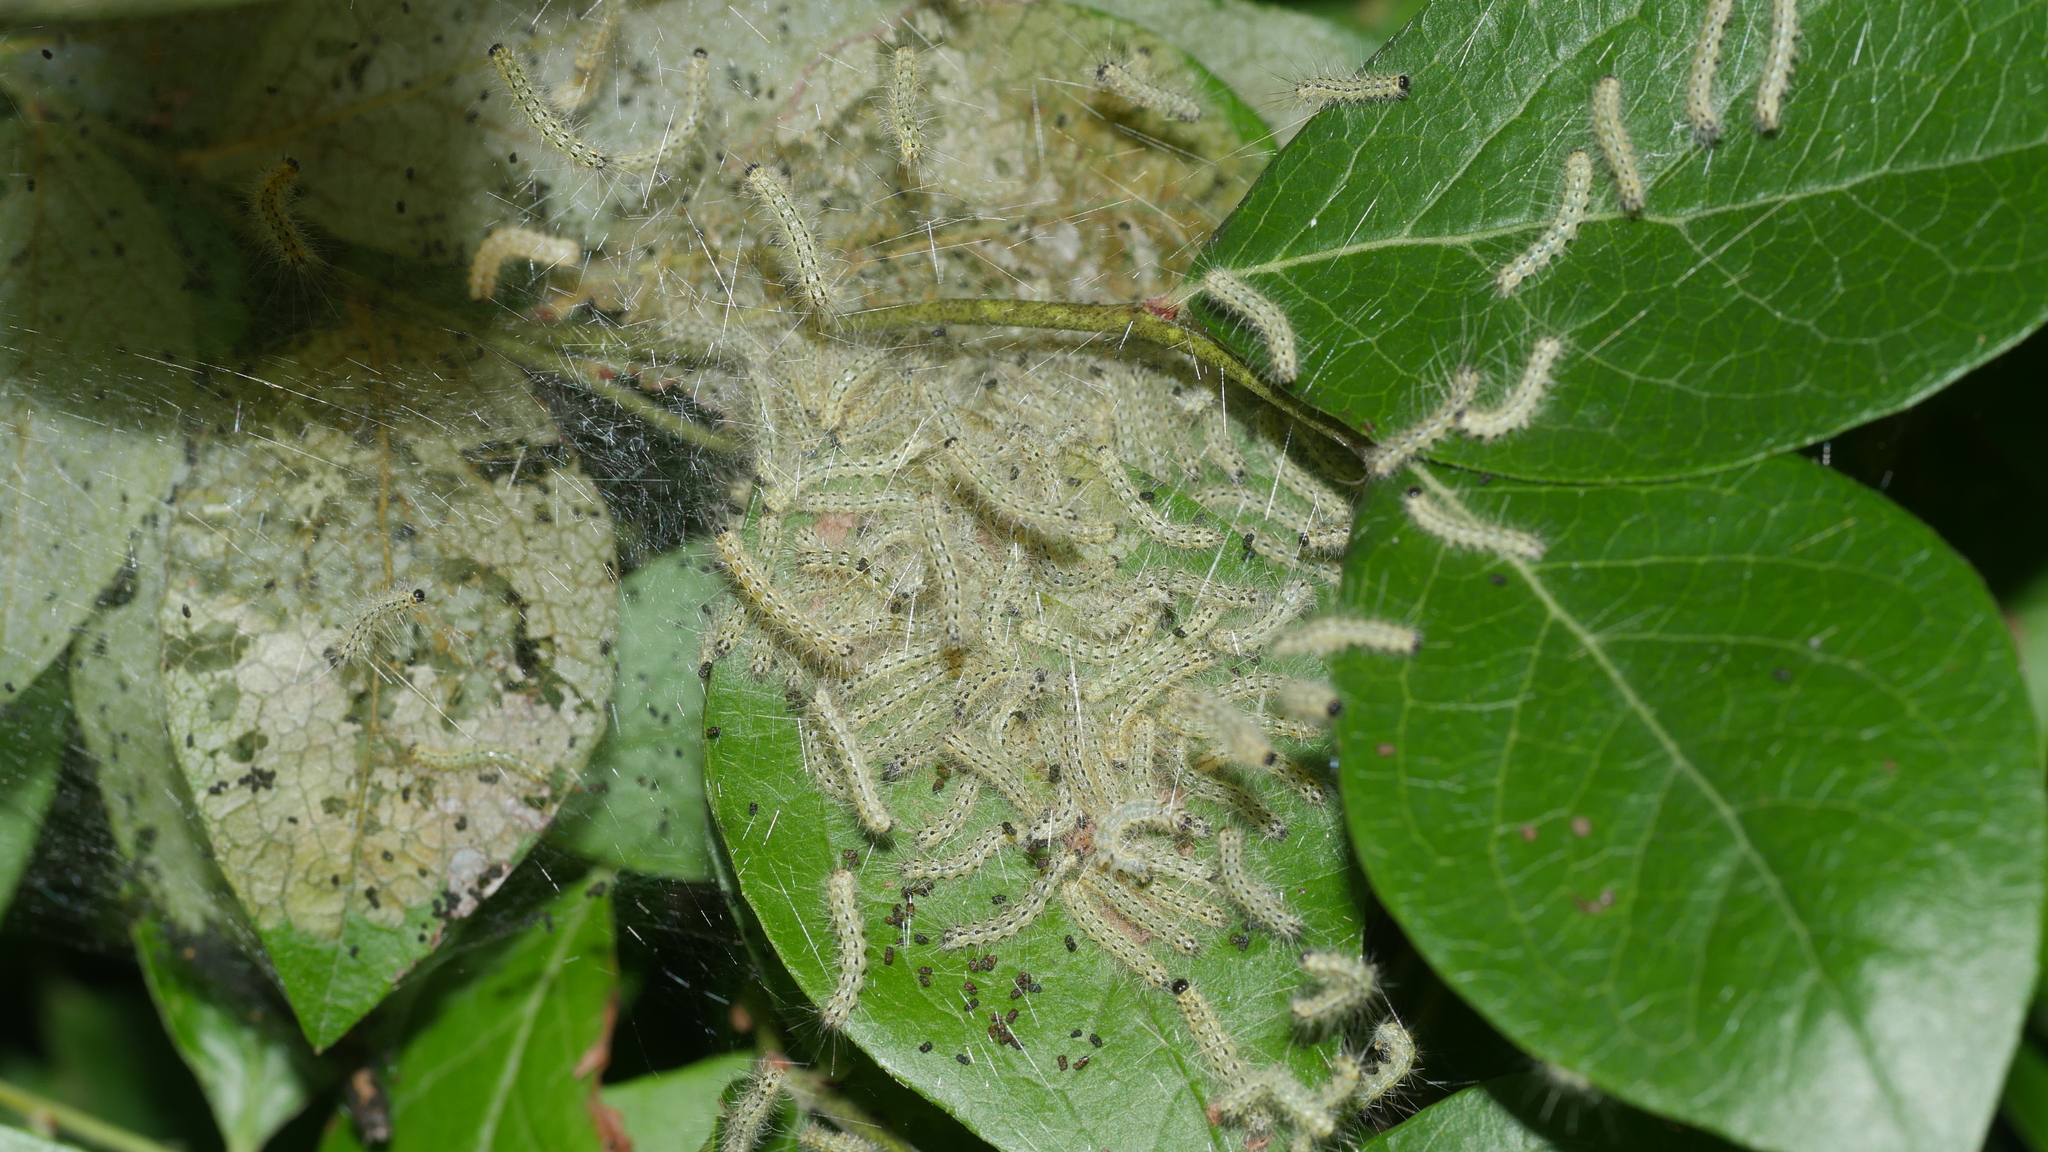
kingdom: Animalia
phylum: Arthropoda
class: Insecta
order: Lepidoptera
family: Erebidae
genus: Hyphantria
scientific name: Hyphantria cunea
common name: American white moth
